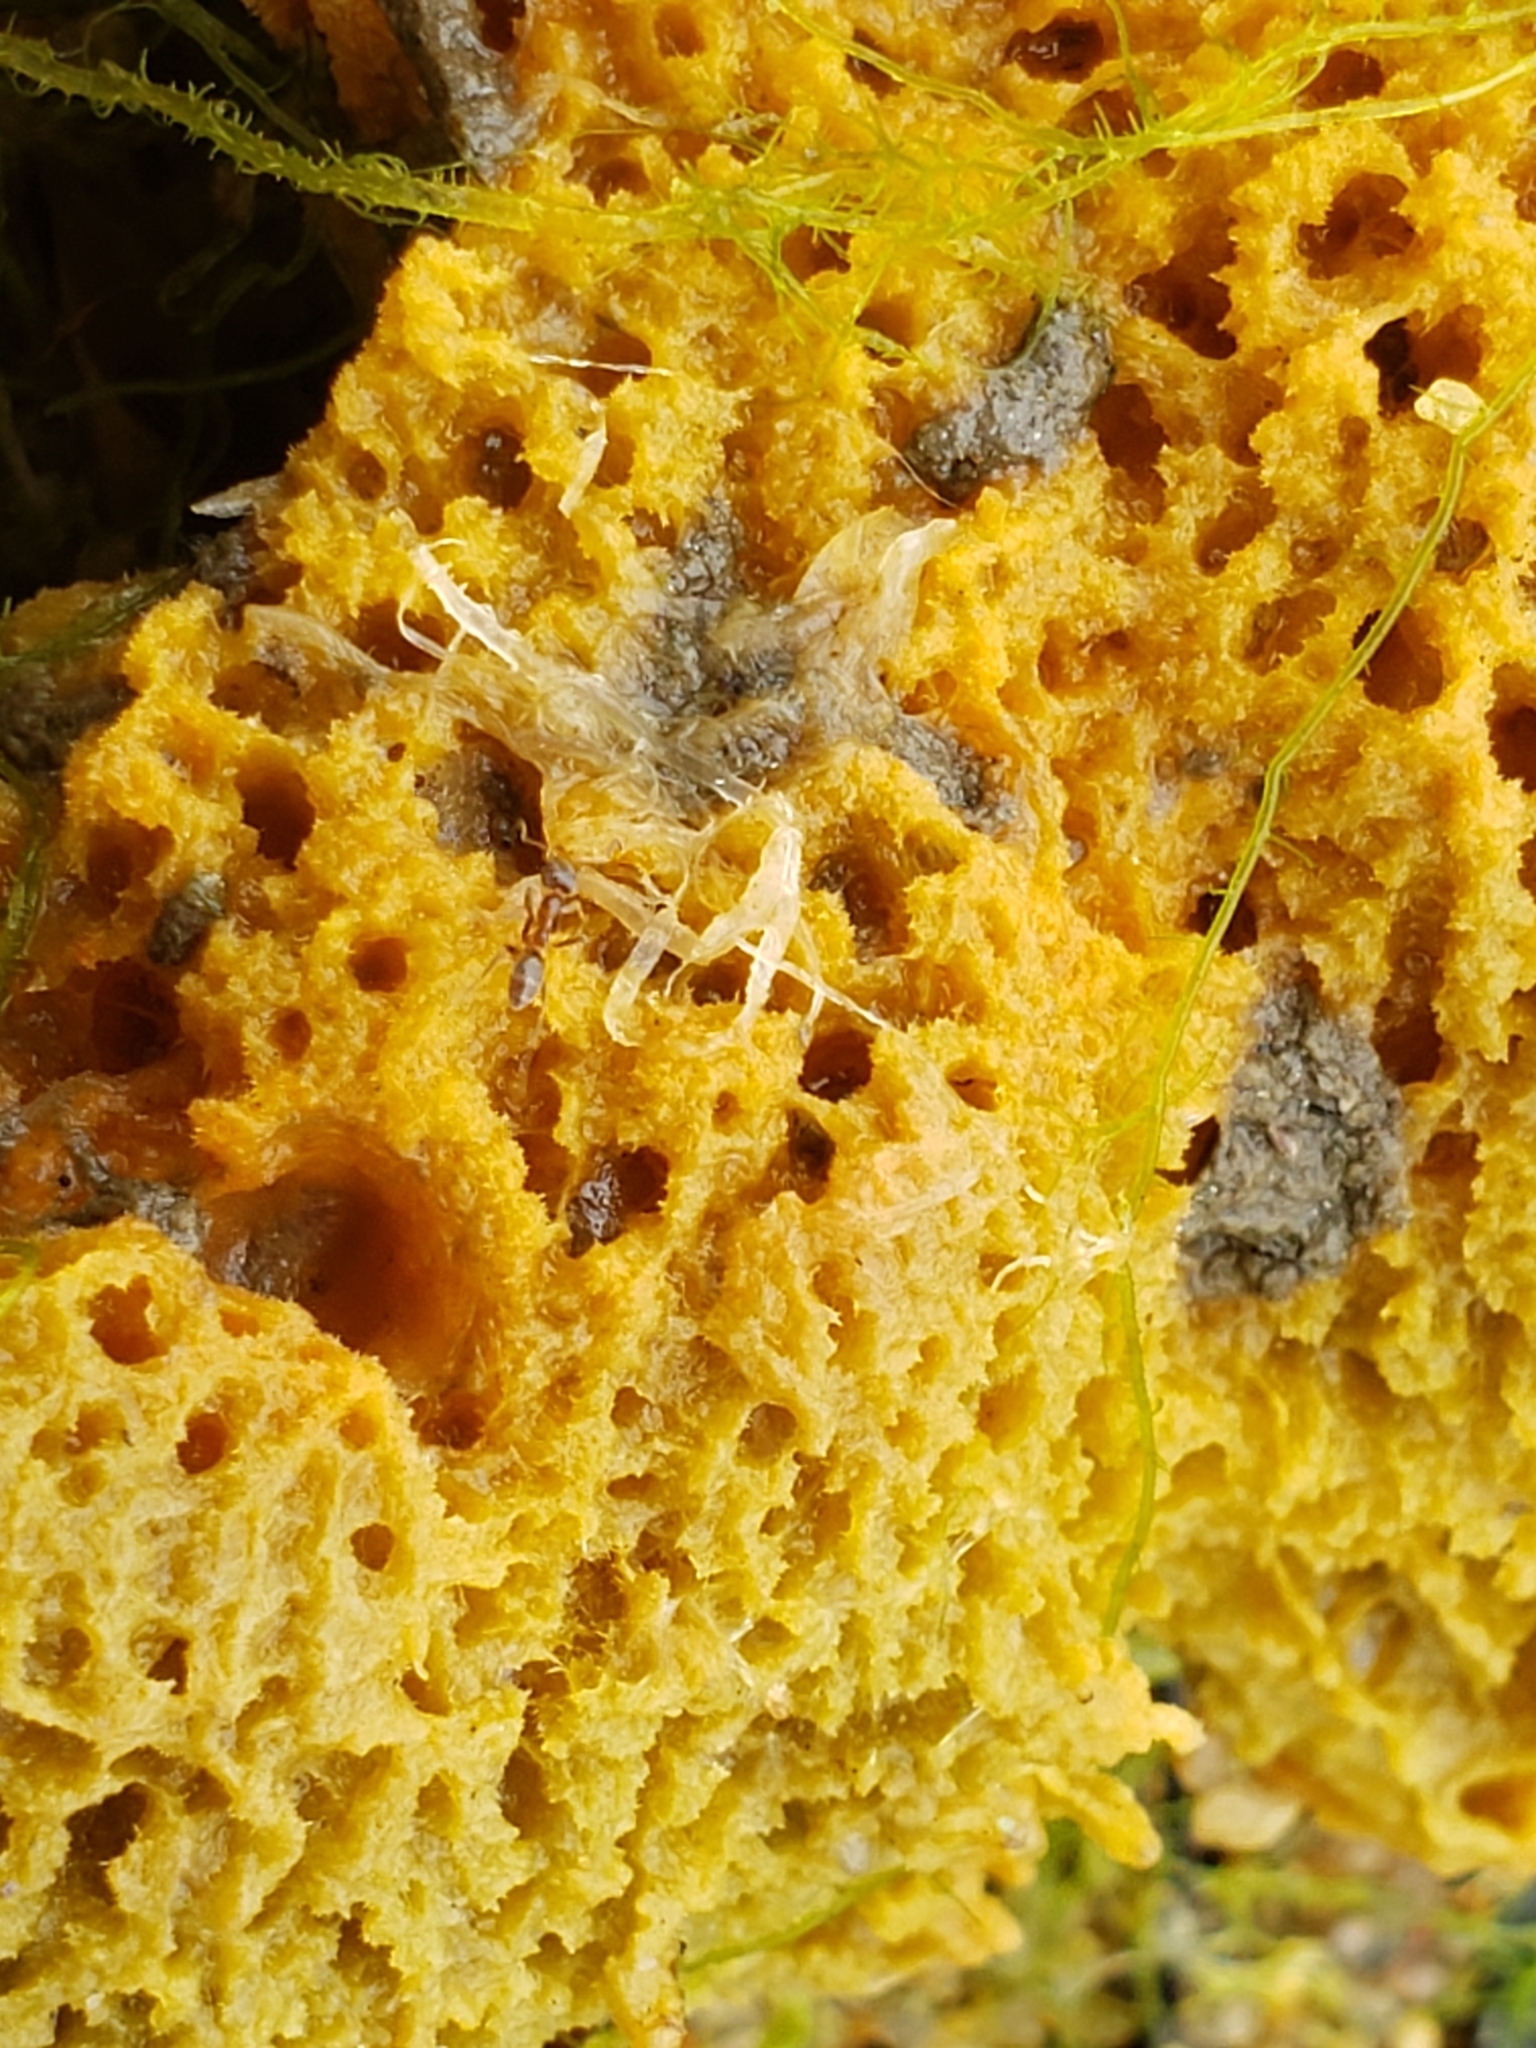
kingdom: Animalia
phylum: Porifera
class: Demospongiae
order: Suberitida
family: Halichondriidae
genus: Hymeniacidon
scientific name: Hymeniacidon perlevis
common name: Crumb-of-bread sponge
